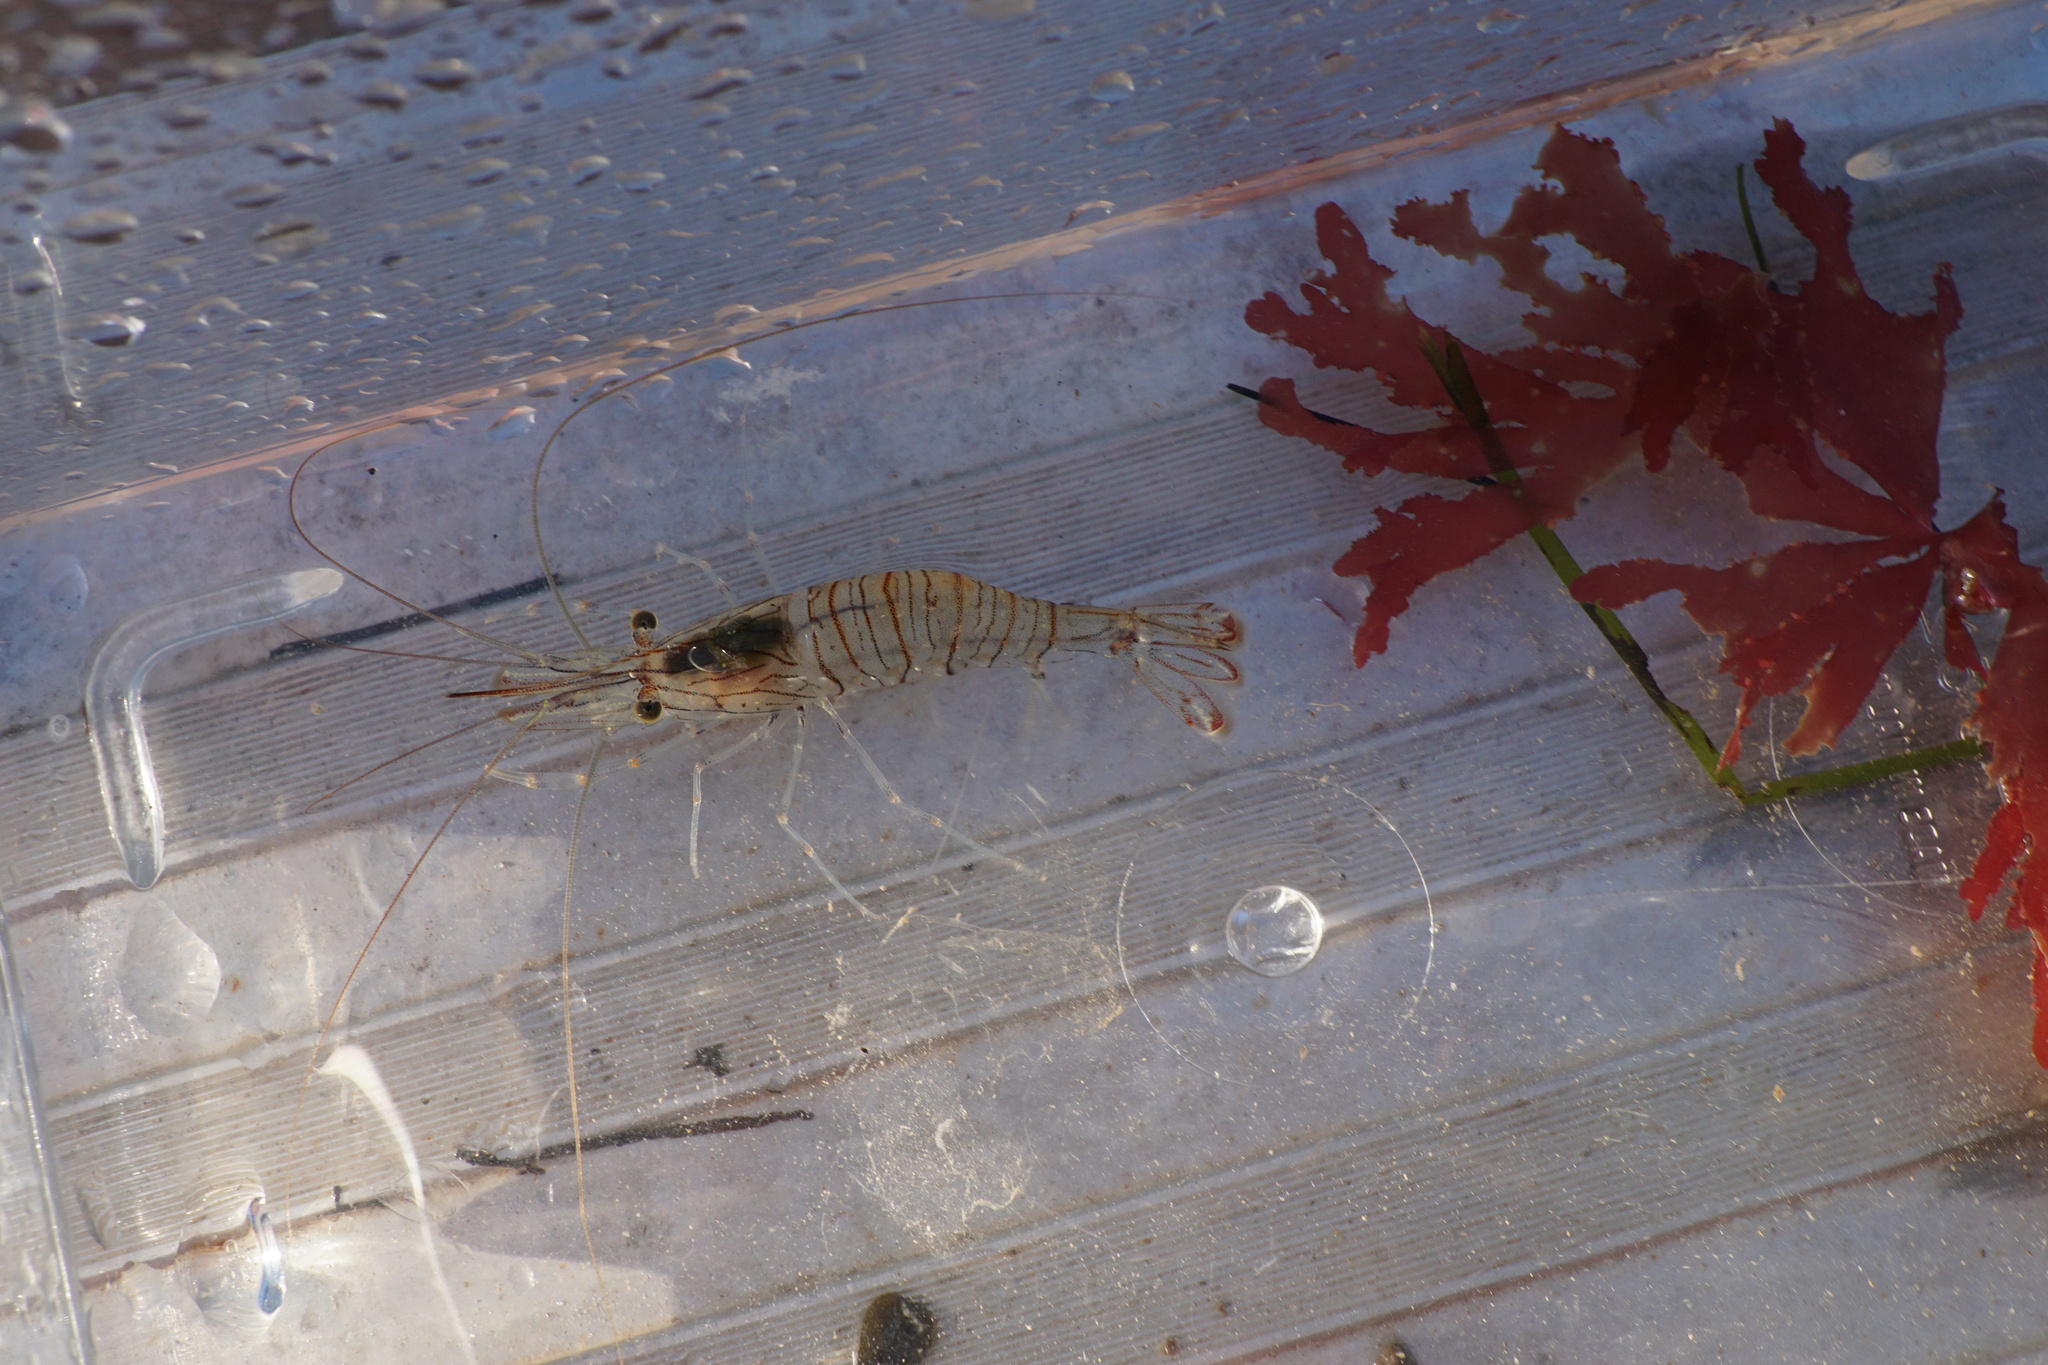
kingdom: Animalia
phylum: Arthropoda
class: Malacostraca
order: Decapoda
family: Palaemonidae
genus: Palaemon
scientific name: Palaemon serratus
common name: Common prawn
